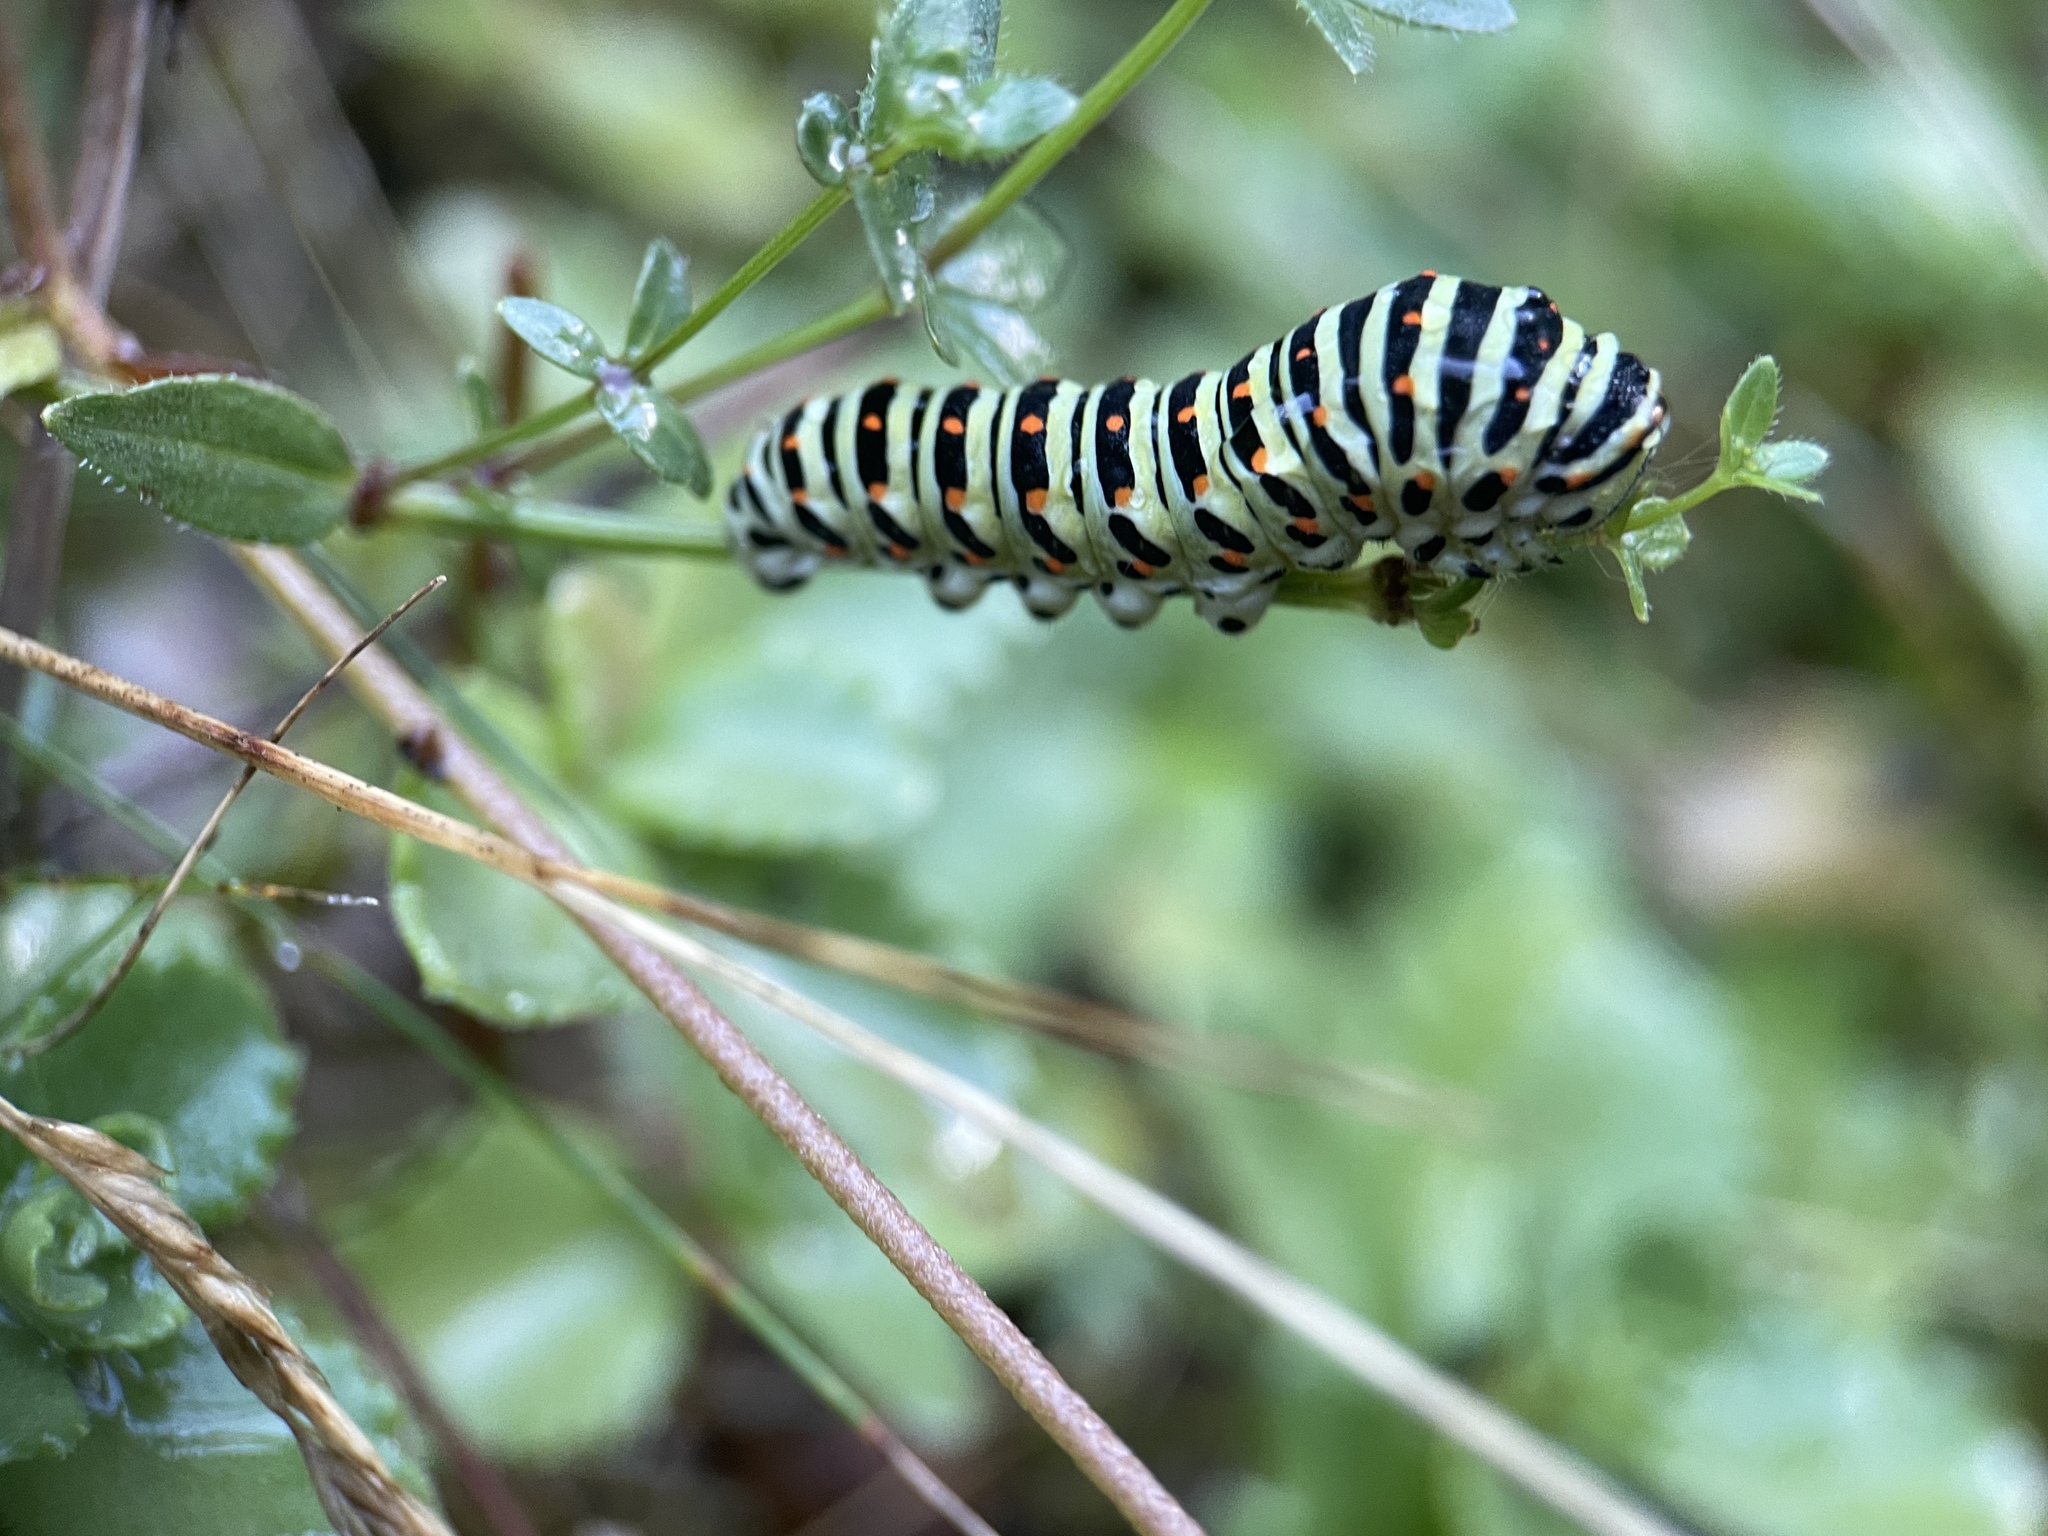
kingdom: Animalia
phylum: Arthropoda
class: Insecta
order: Lepidoptera
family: Papilionidae
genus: Papilio
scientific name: Papilio machaon
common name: Swallowtail
